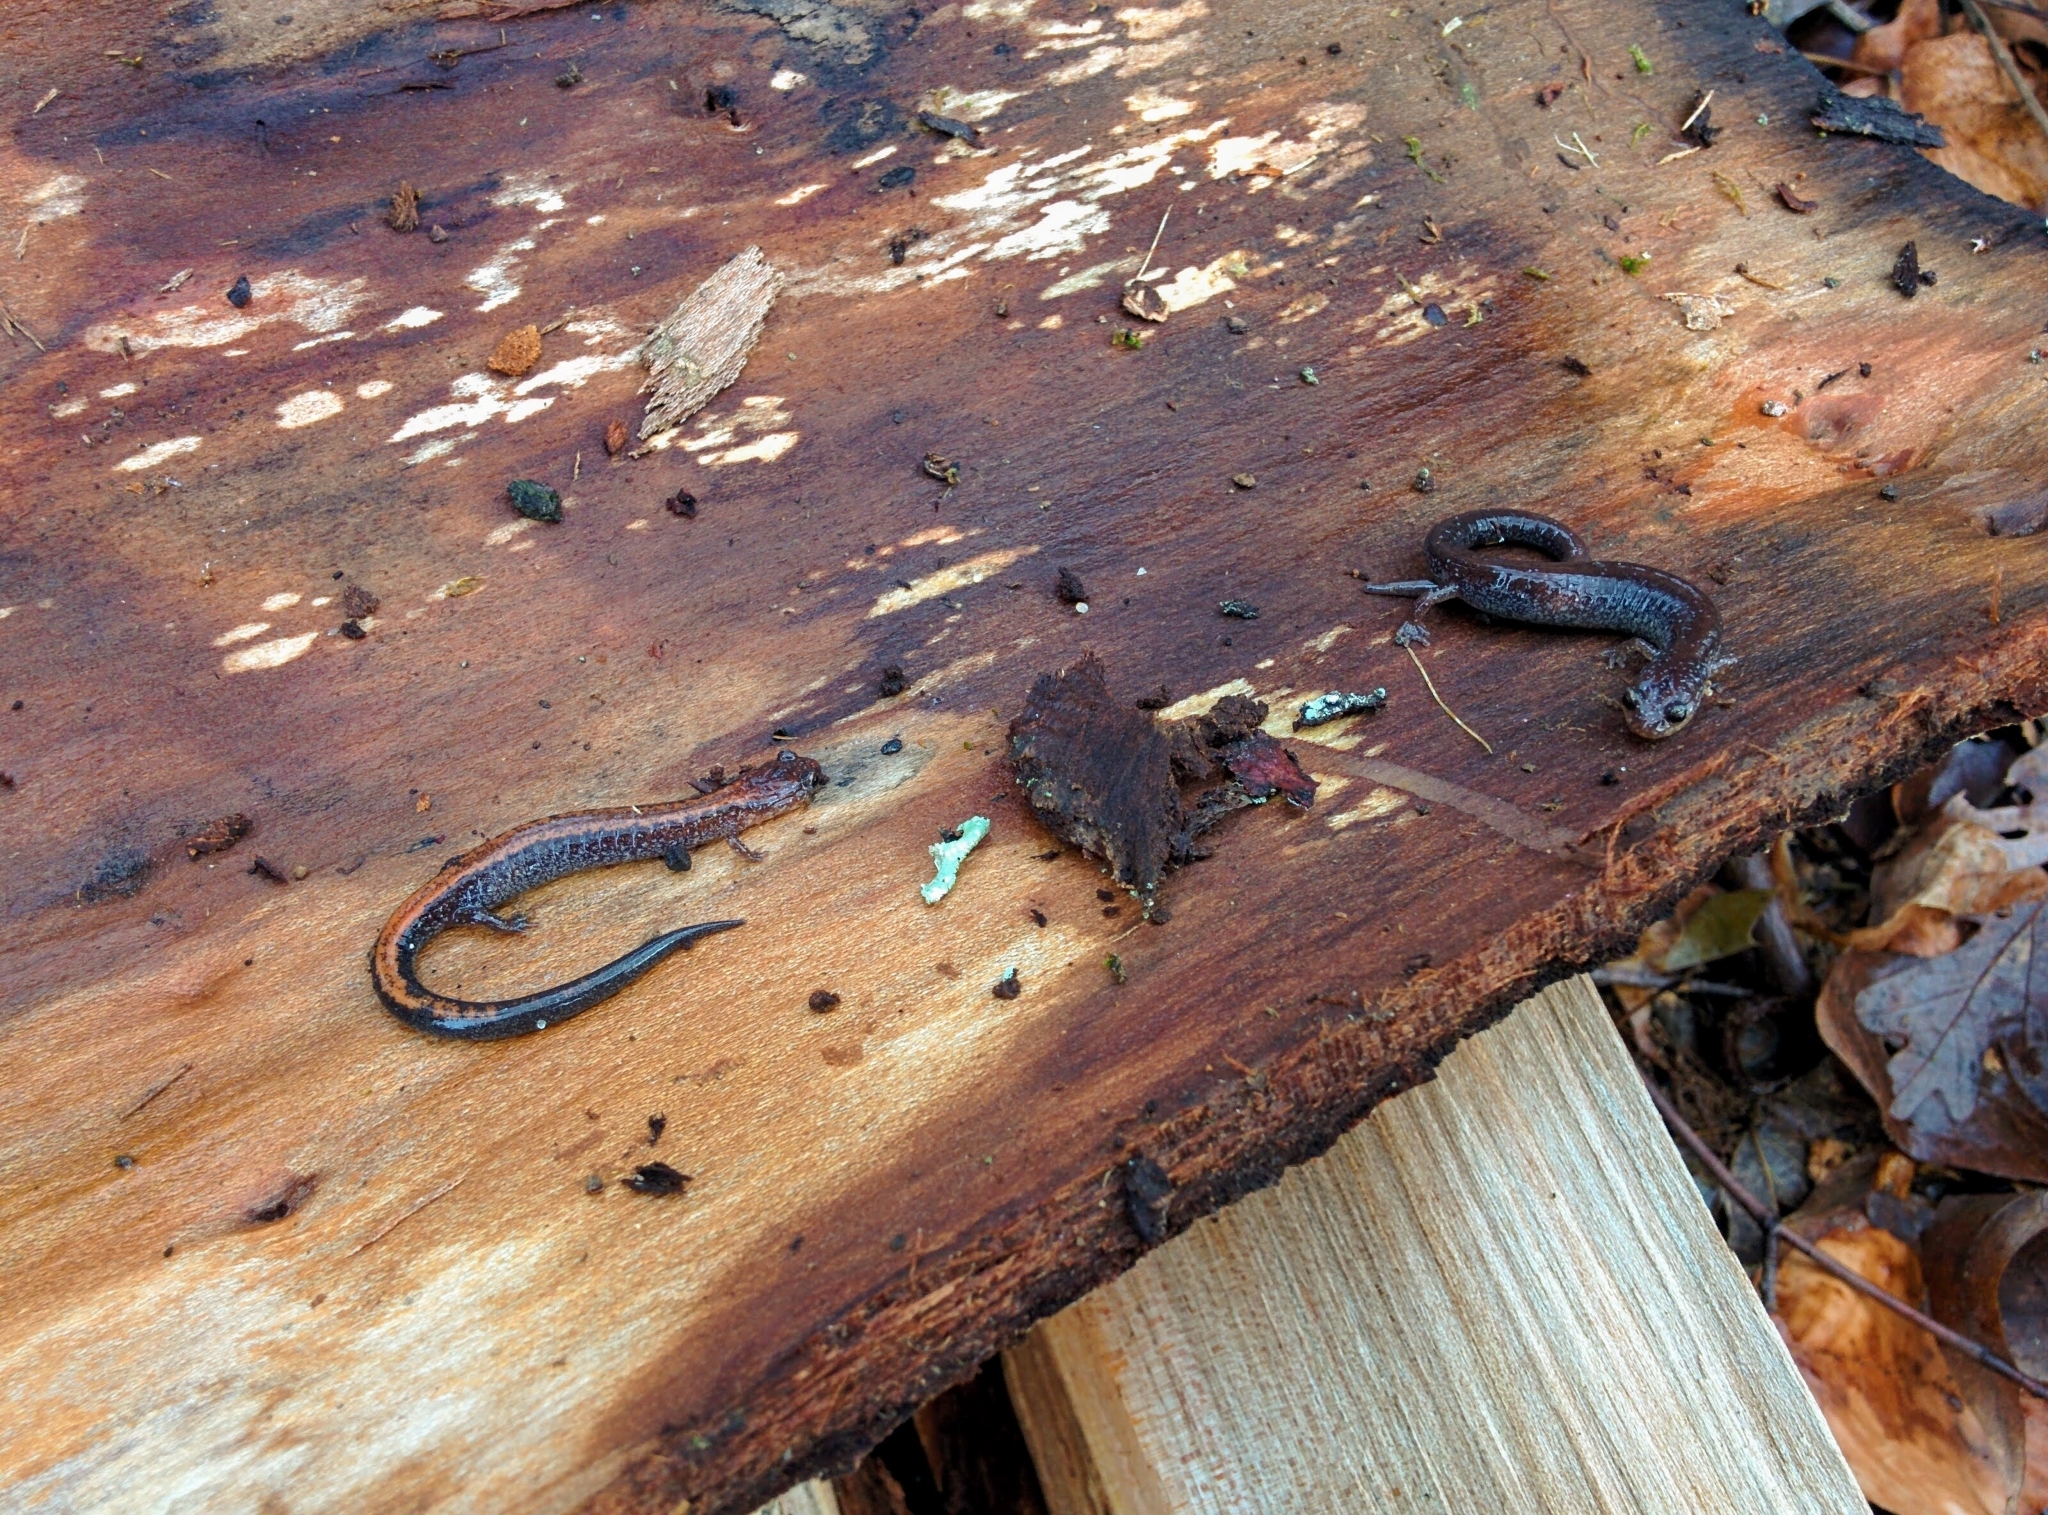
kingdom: Animalia
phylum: Chordata
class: Amphibia
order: Caudata
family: Plethodontidae
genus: Plethodon
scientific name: Plethodon cinereus
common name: Redback salamander
